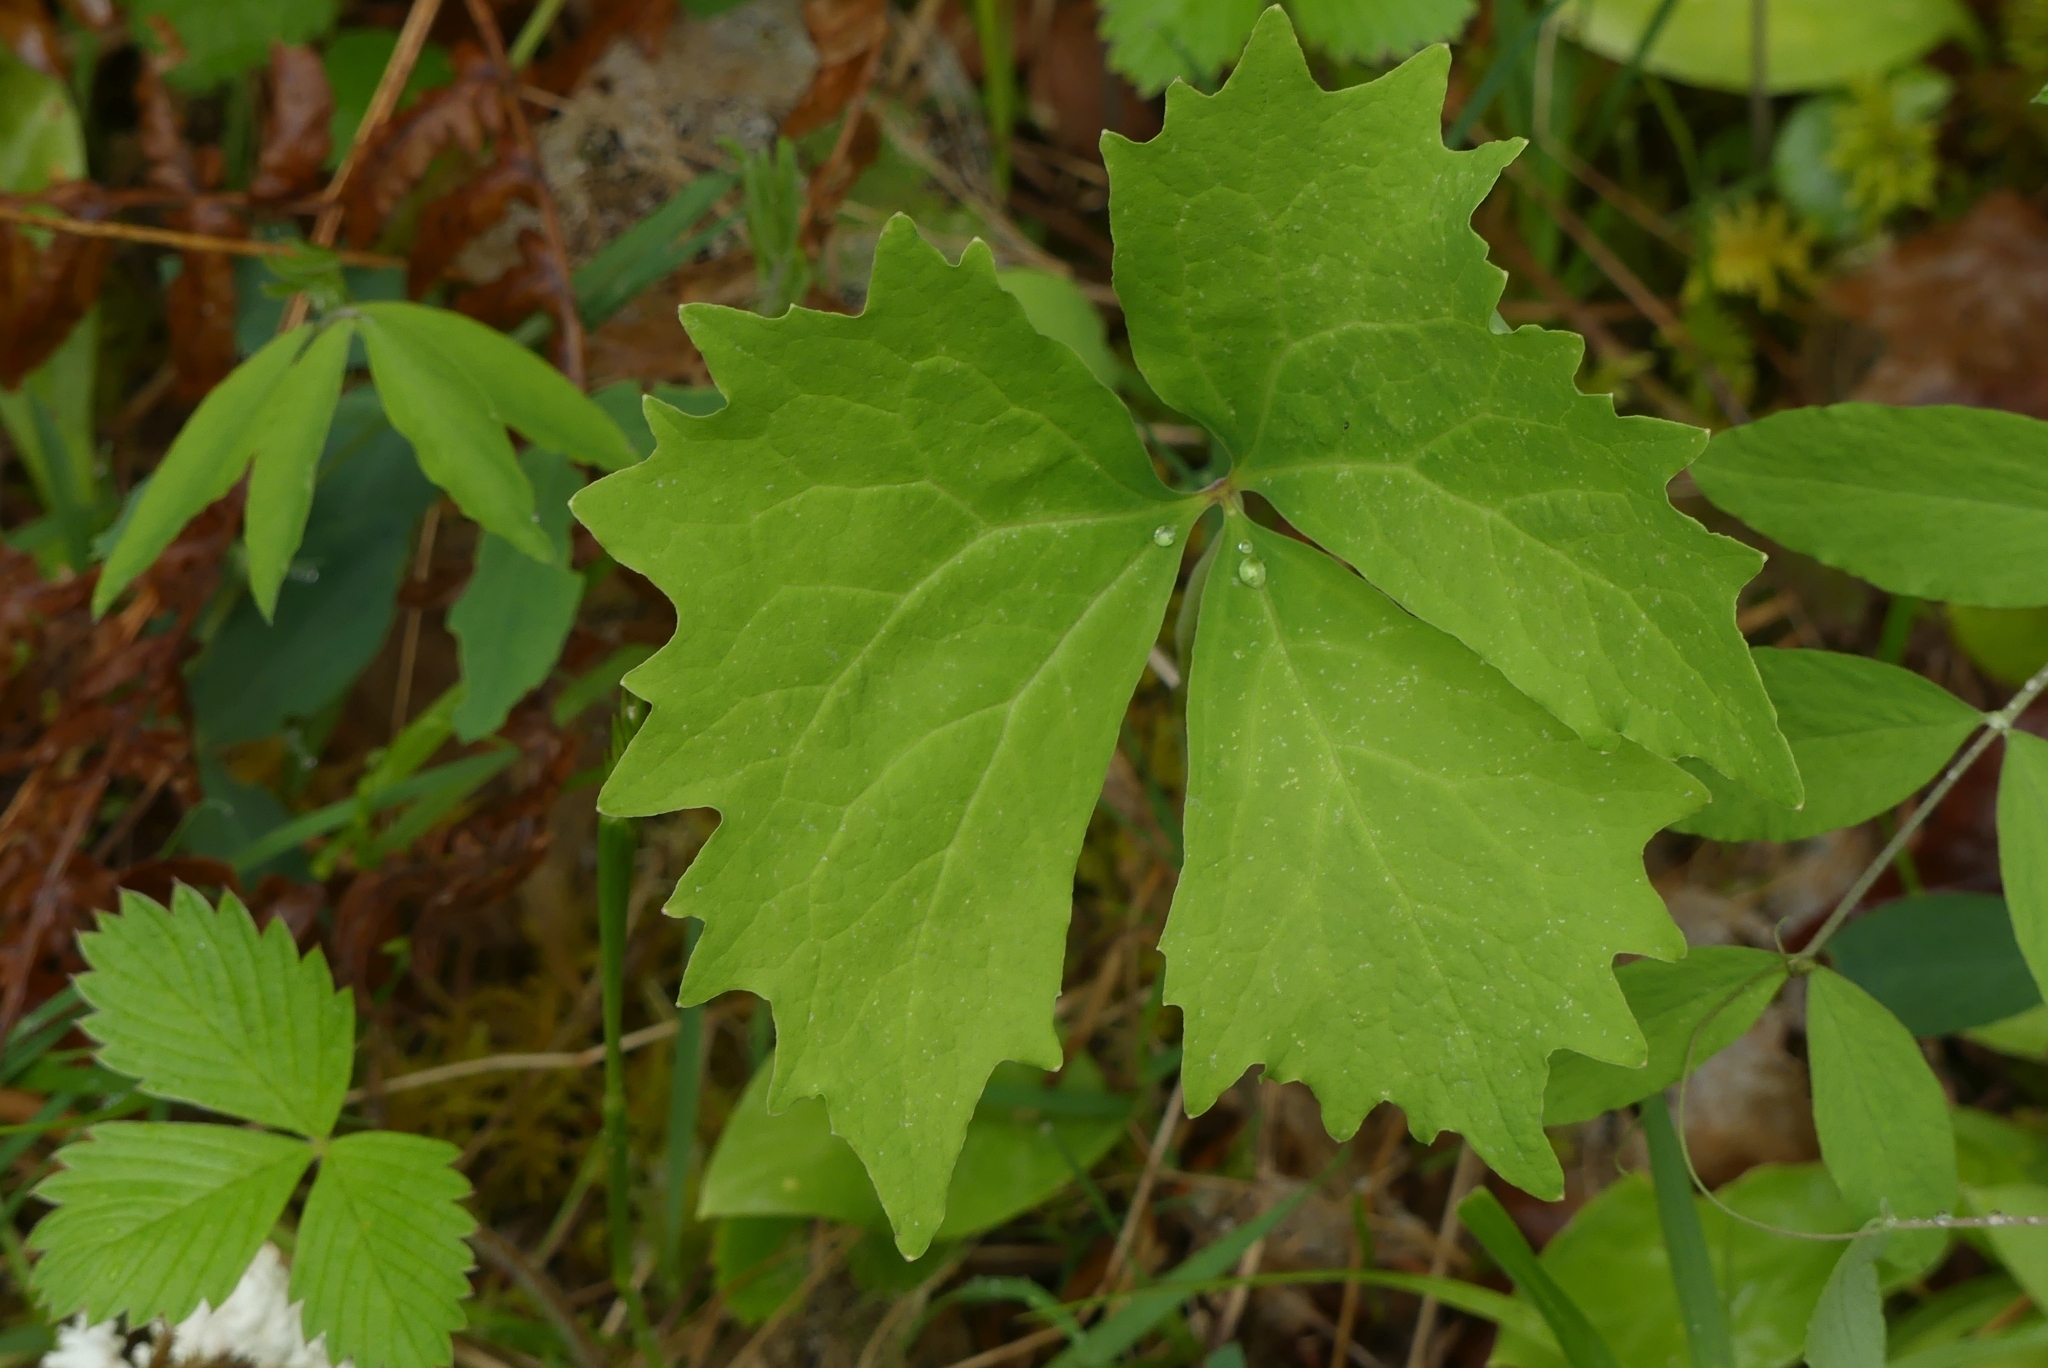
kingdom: Plantae
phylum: Tracheophyta
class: Magnoliopsida
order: Ranunculales
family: Berberidaceae
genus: Achlys
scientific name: Achlys triphylla
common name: Vanilla-leaf
